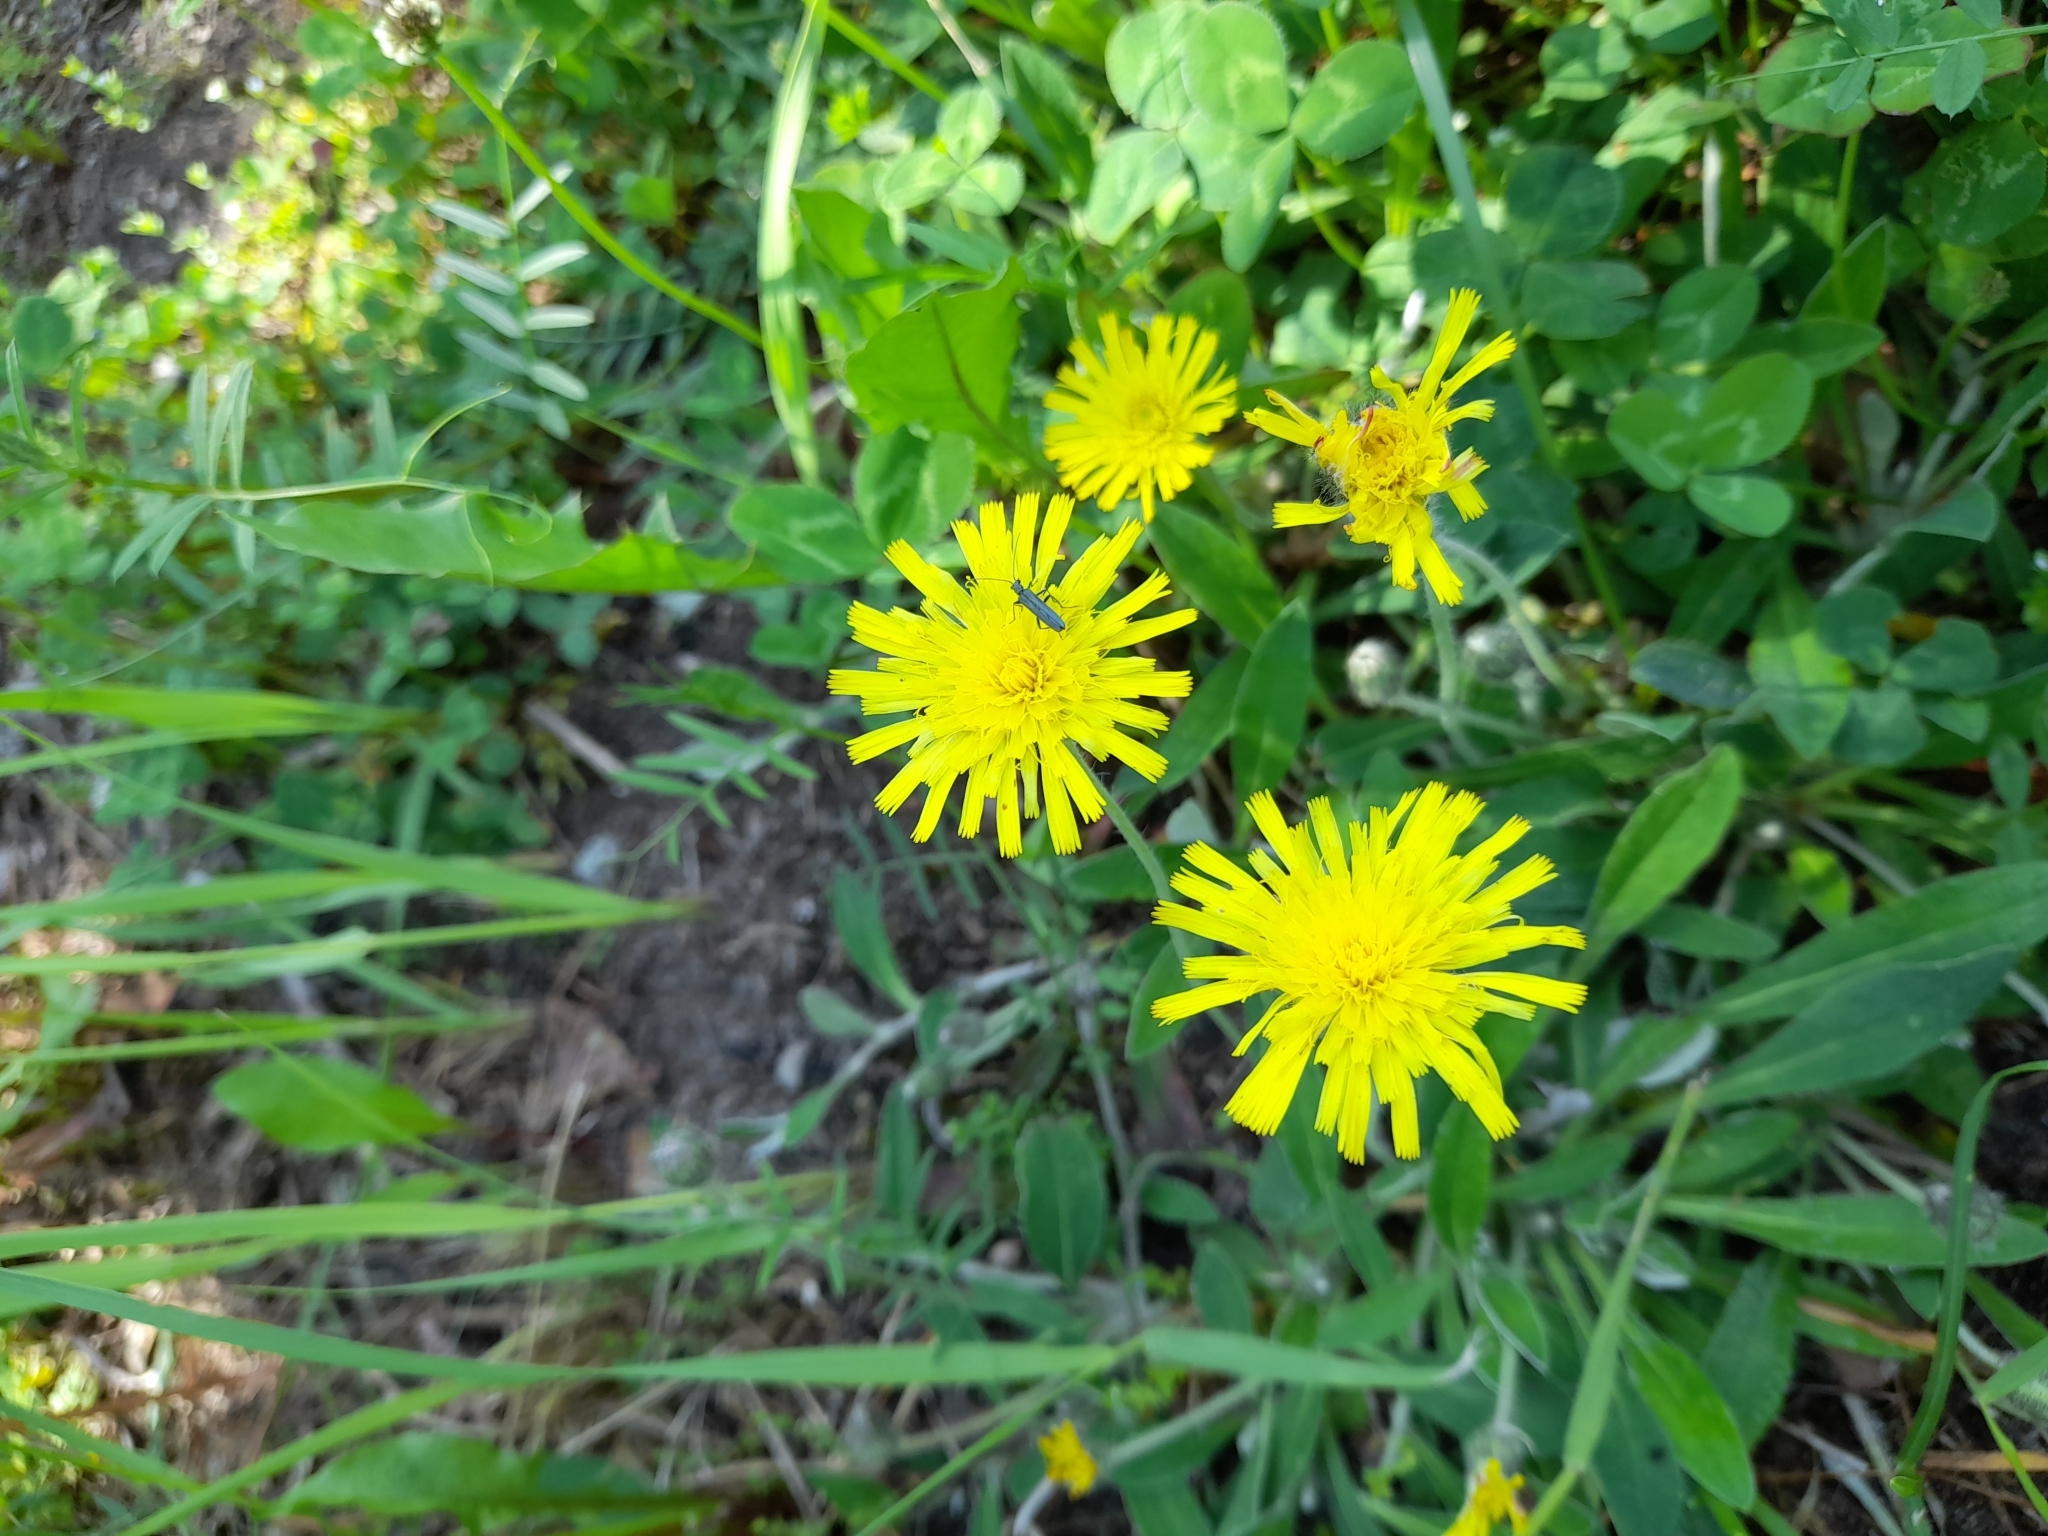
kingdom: Plantae
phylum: Tracheophyta
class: Magnoliopsida
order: Asterales
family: Asteraceae
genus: Pilosella
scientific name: Pilosella officinarum
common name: Mouse-ear hawkweed
